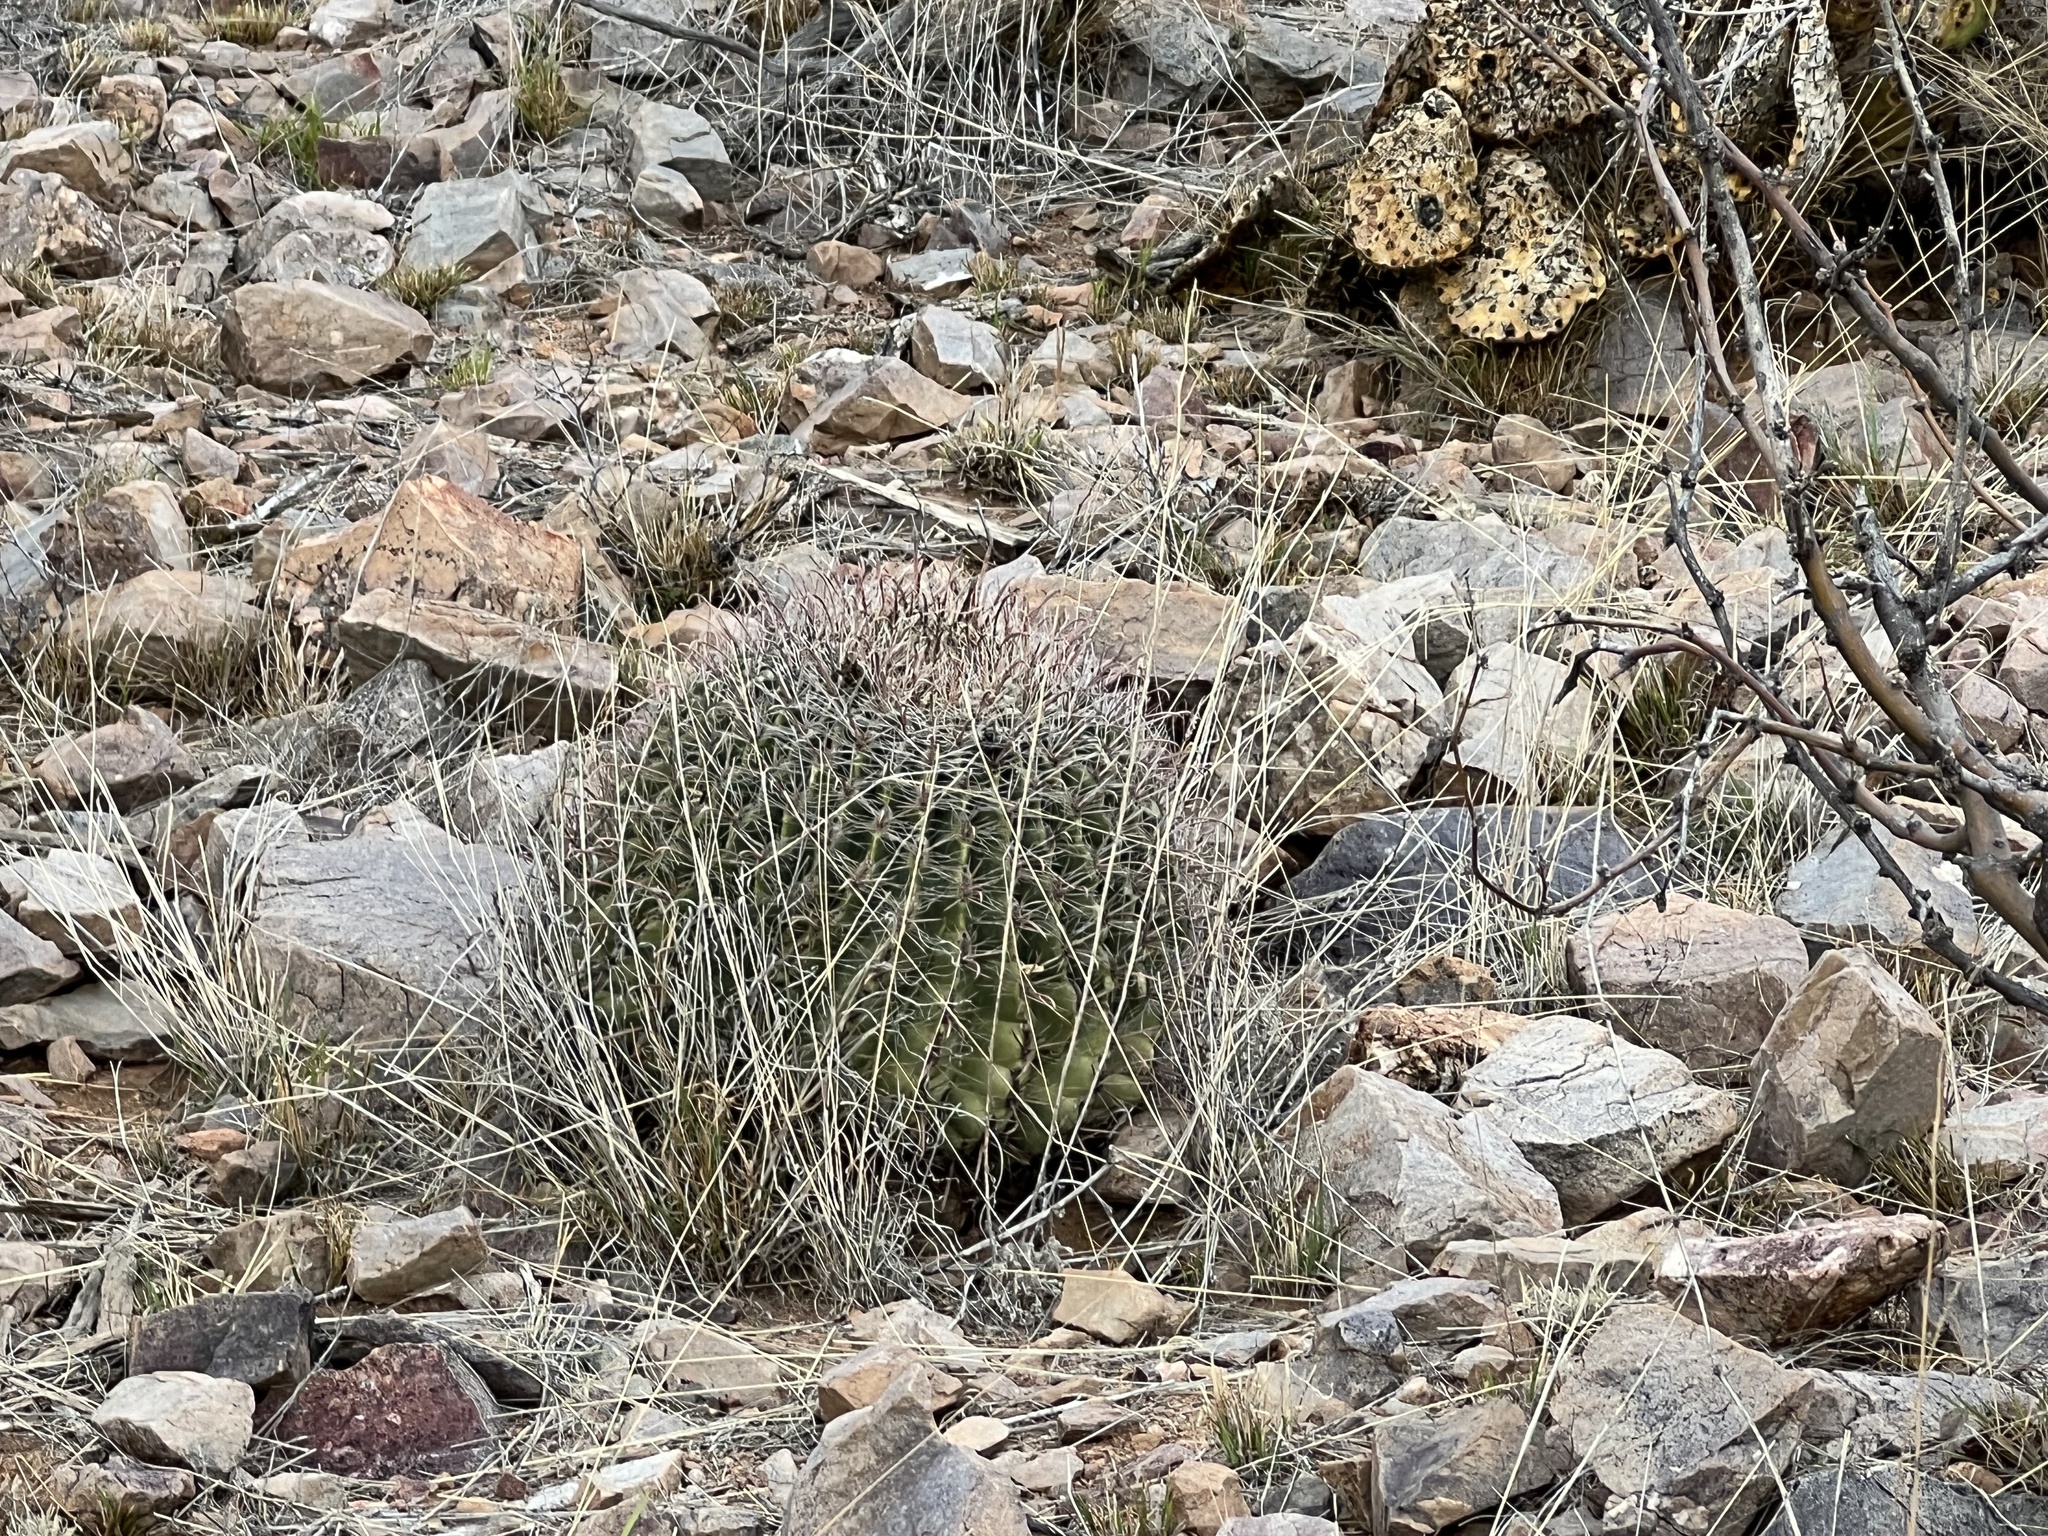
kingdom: Plantae
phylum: Tracheophyta
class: Magnoliopsida
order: Caryophyllales
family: Cactaceae
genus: Ferocactus
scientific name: Ferocactus wislizeni
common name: Candy barrel cactus
